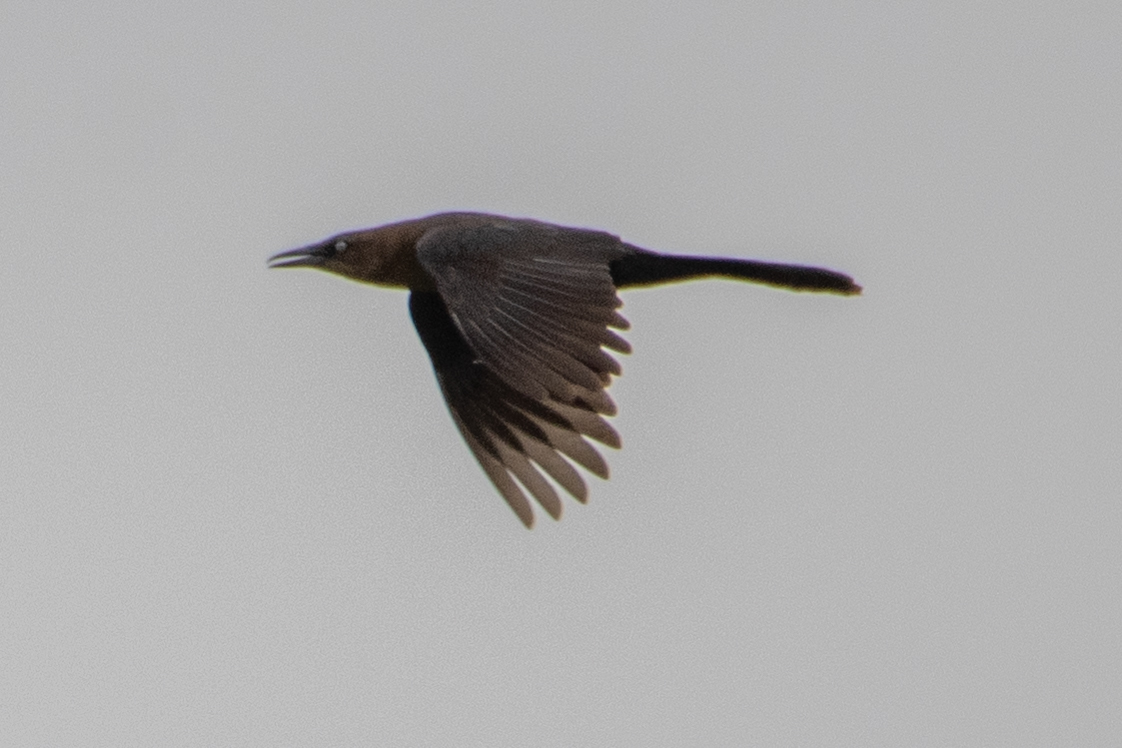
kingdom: Animalia
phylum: Chordata
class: Aves
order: Passeriformes
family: Icteridae
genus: Quiscalus
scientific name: Quiscalus mexicanus
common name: Great-tailed grackle
